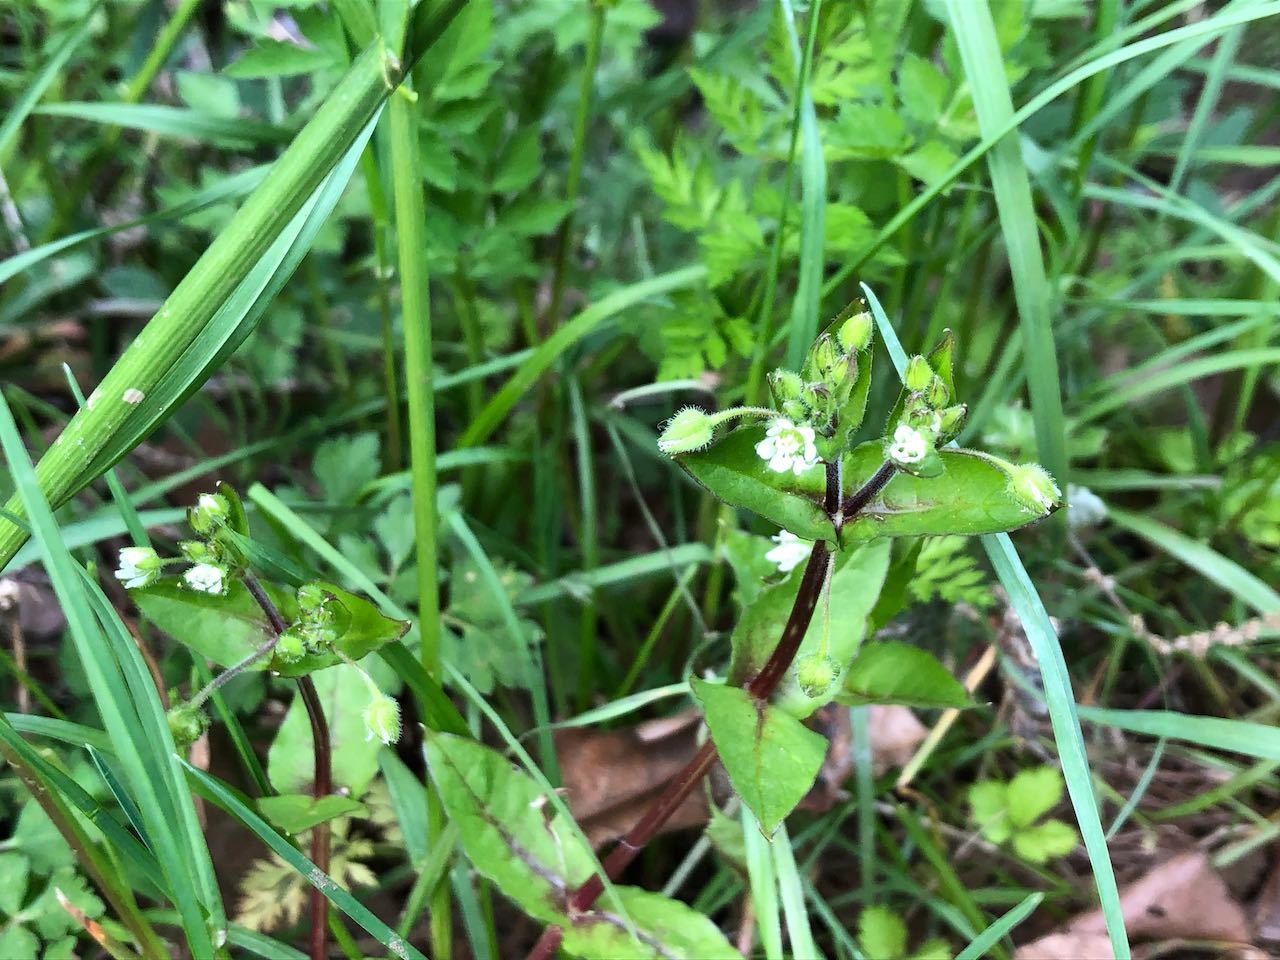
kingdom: Plantae
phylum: Tracheophyta
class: Magnoliopsida
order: Caryophyllales
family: Caryophyllaceae
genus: Stellaria
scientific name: Stellaria aquatica
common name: Water chickweed
